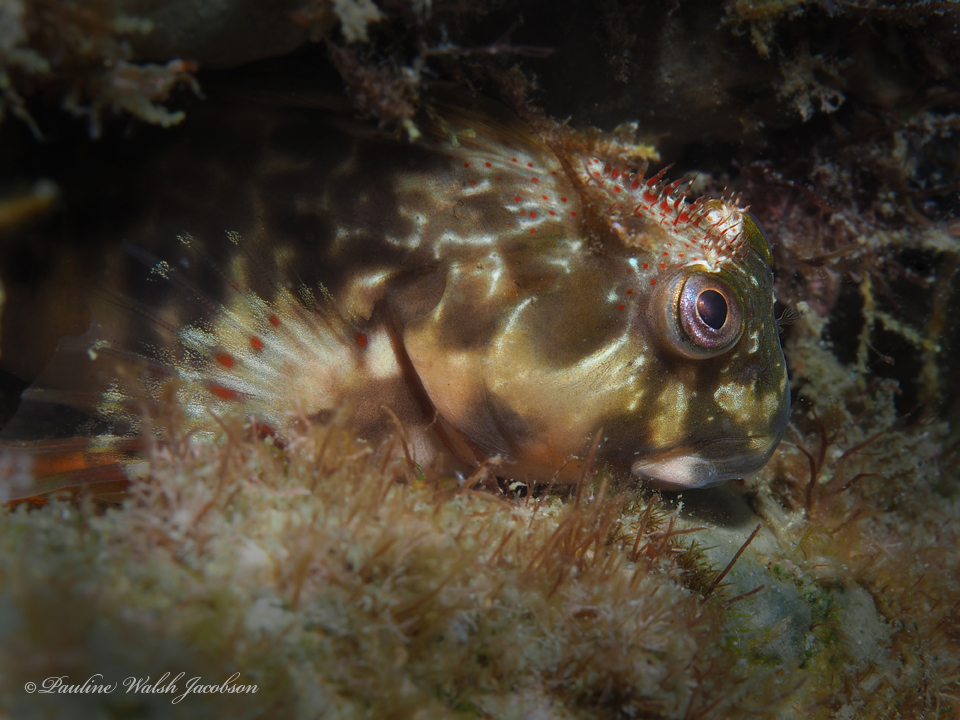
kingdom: Animalia
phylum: Chordata
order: Perciformes
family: Blenniidae
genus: Scartella
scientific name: Scartella cristata
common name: Molly miller
